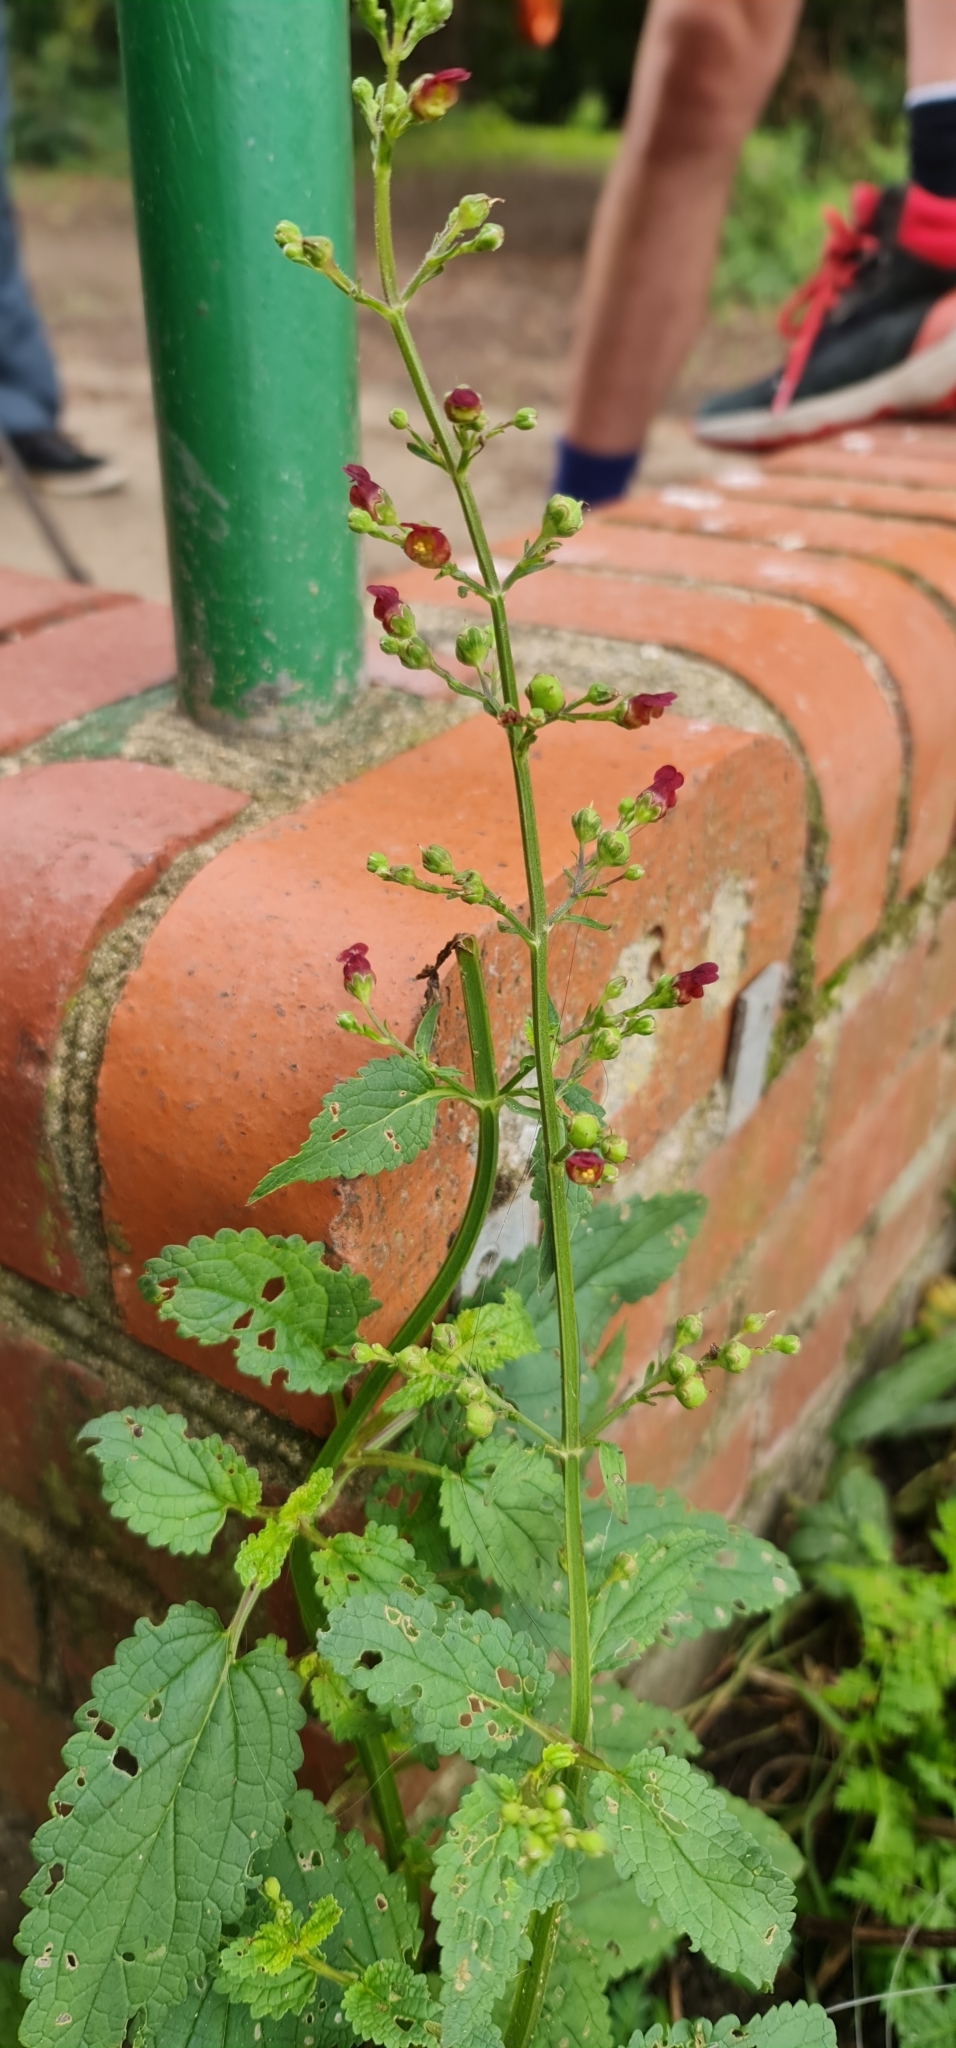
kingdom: Plantae
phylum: Tracheophyta
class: Magnoliopsida
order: Lamiales
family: Scrophulariaceae
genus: Scrophularia
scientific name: Scrophularia auriculata
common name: Water betony
